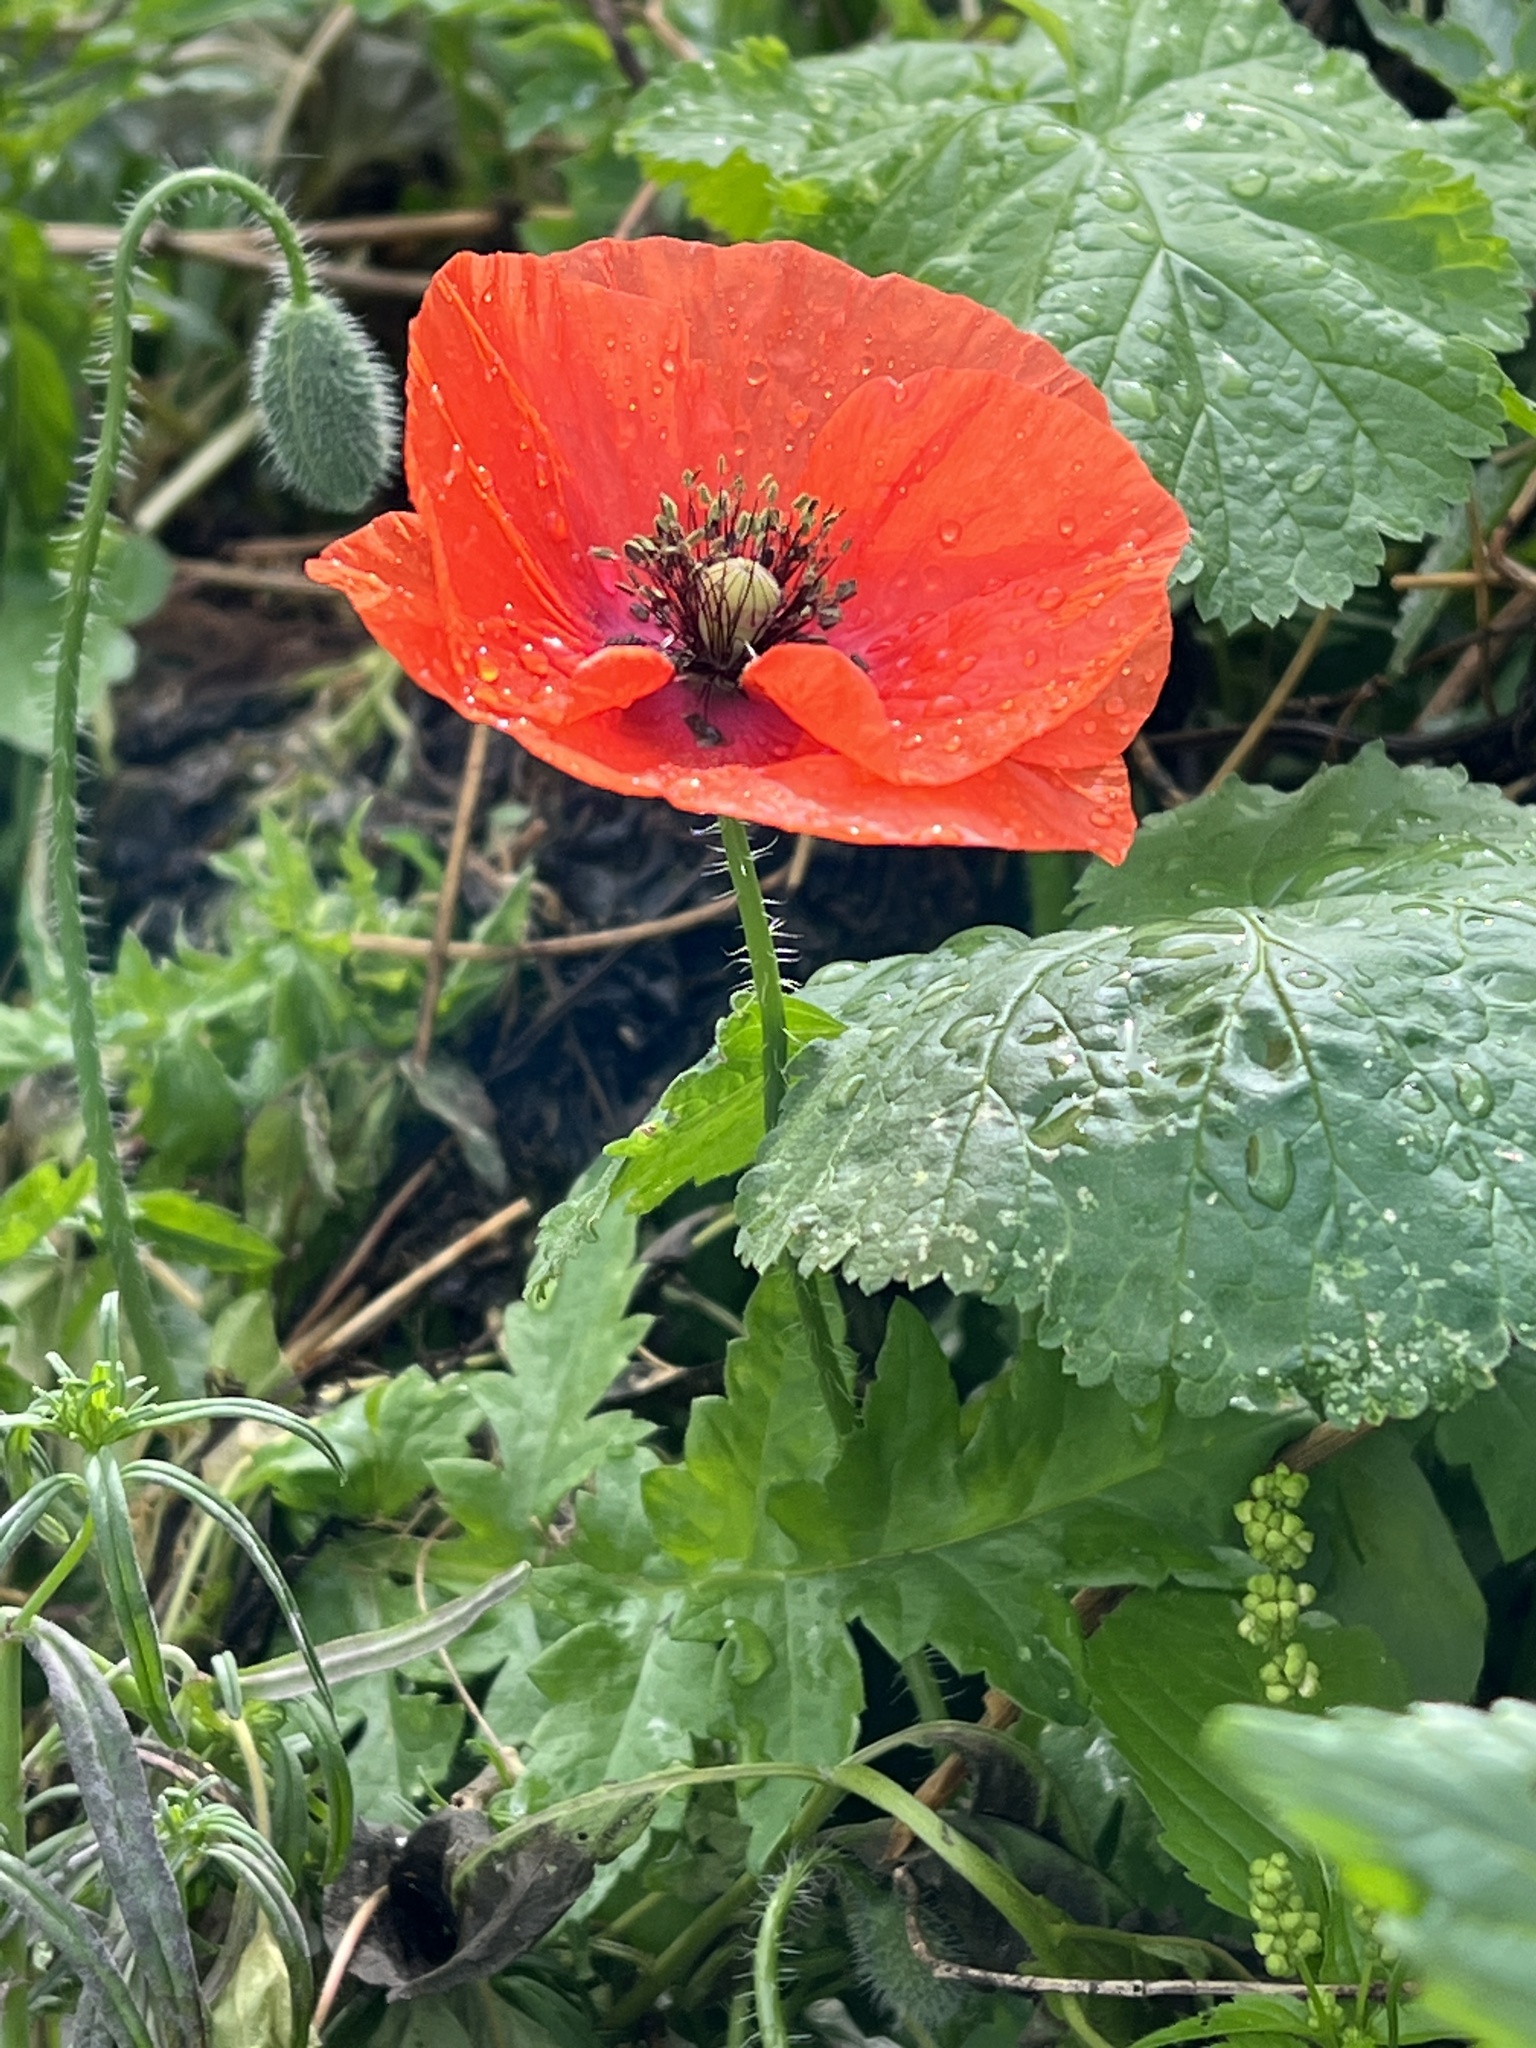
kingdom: Plantae
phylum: Tracheophyta
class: Magnoliopsida
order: Ranunculales
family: Papaveraceae
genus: Papaver
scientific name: Papaver rhoeas
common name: Corn poppy
